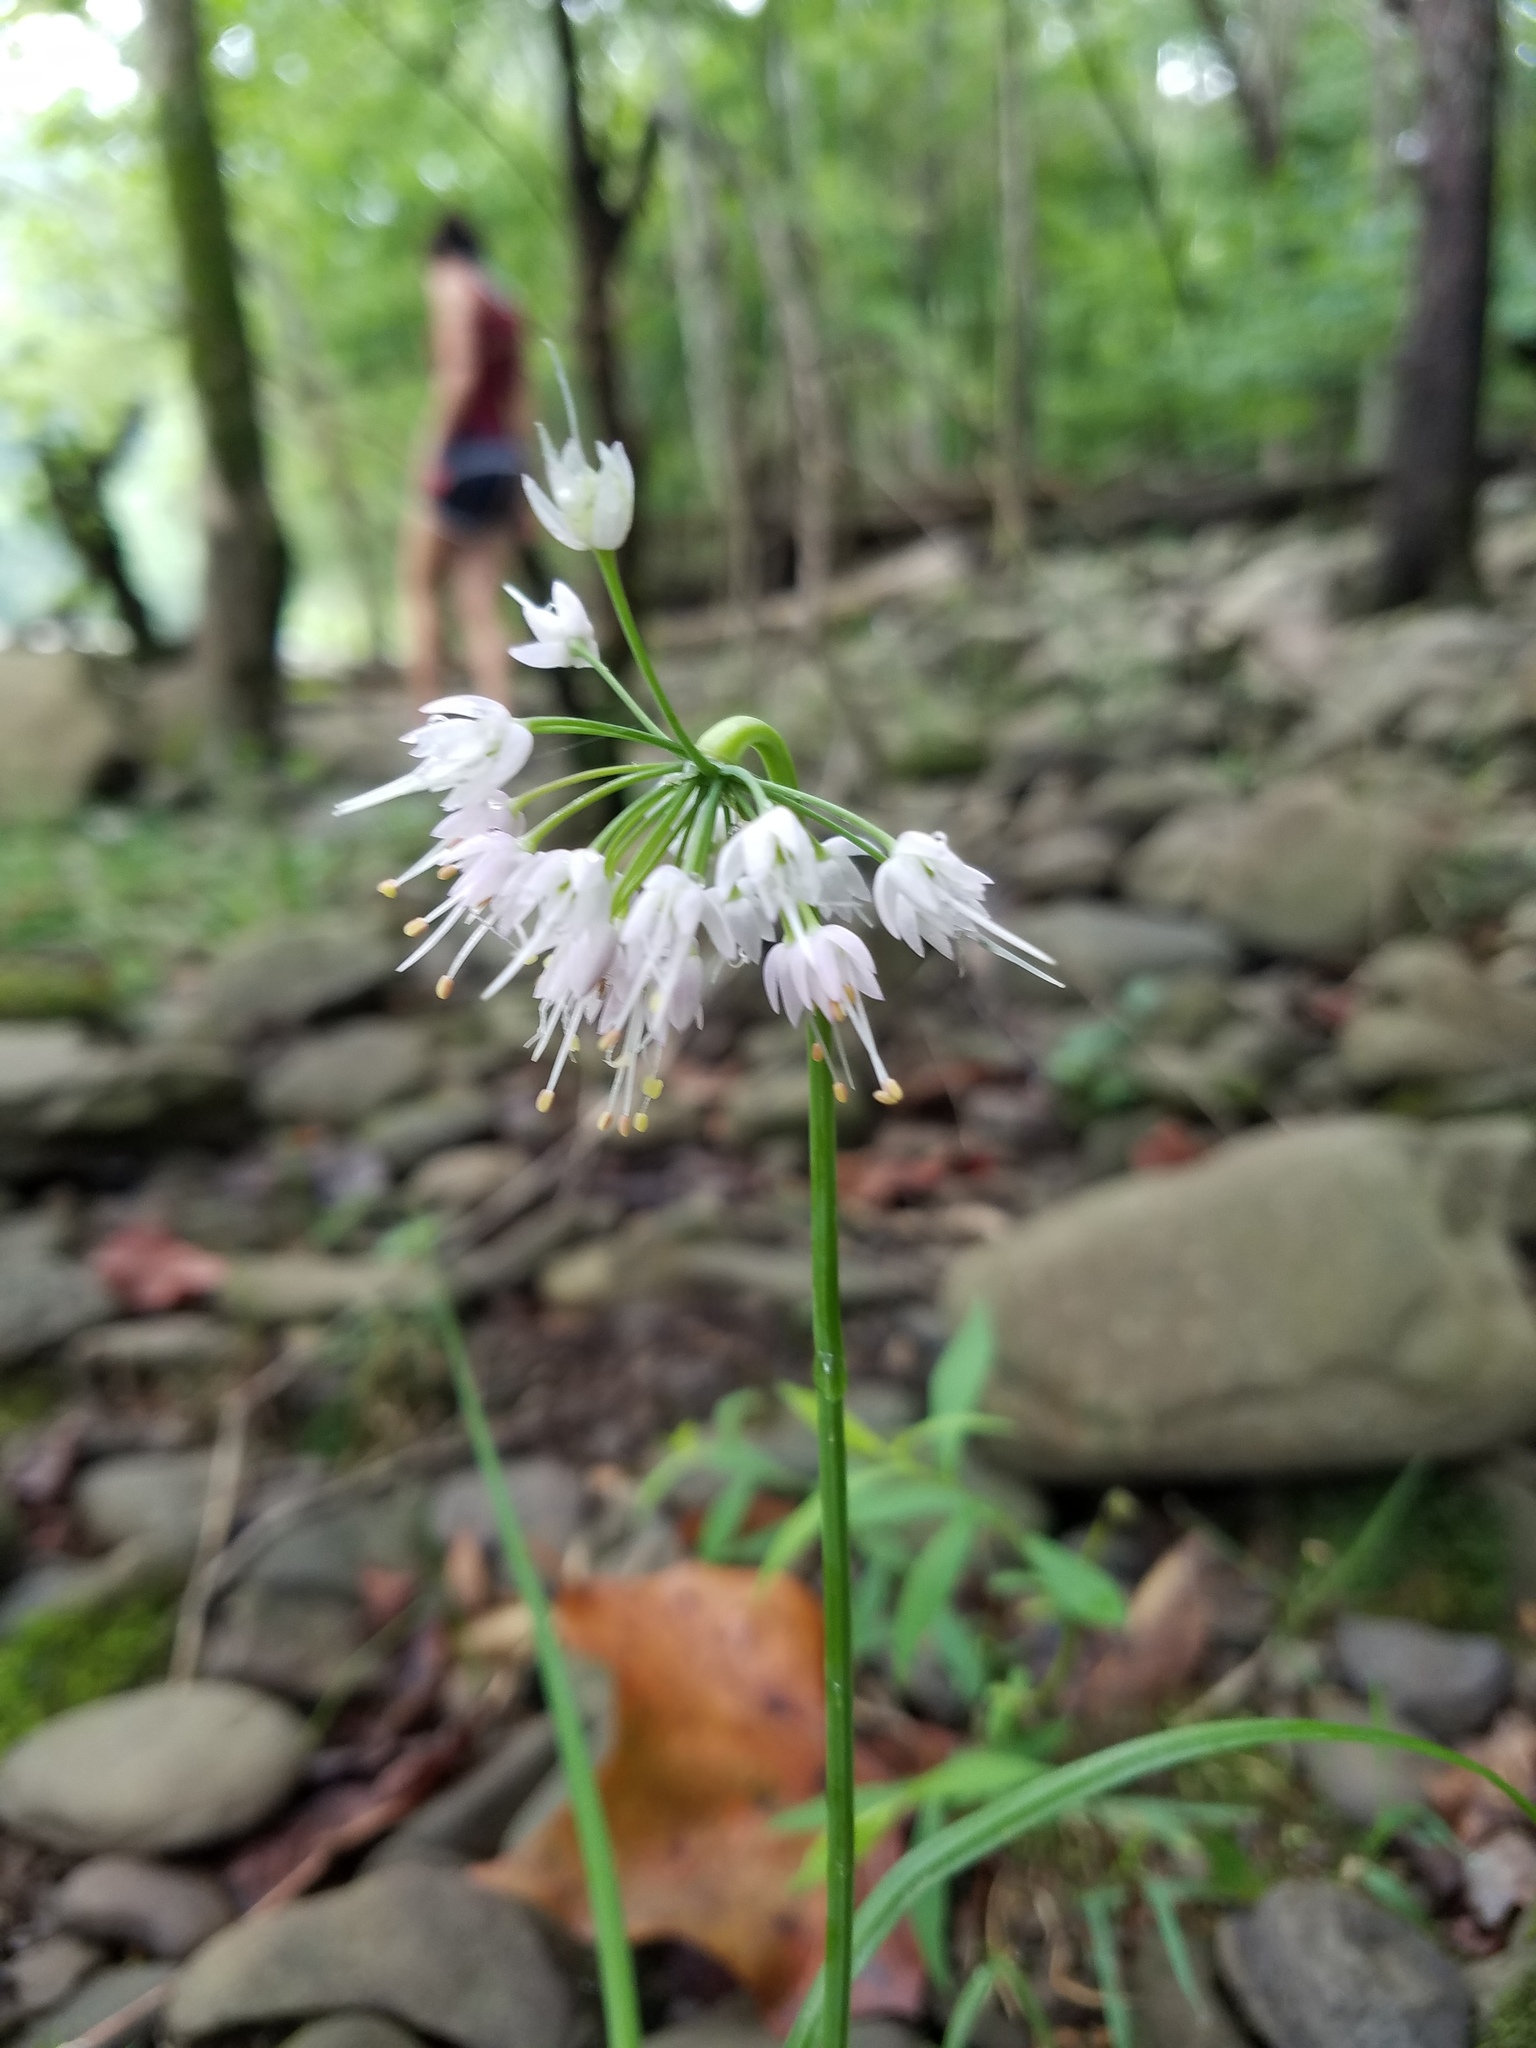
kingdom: Plantae
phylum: Tracheophyta
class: Liliopsida
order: Asparagales
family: Amaryllidaceae
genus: Allium
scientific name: Allium cernuum
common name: Nodding onion
